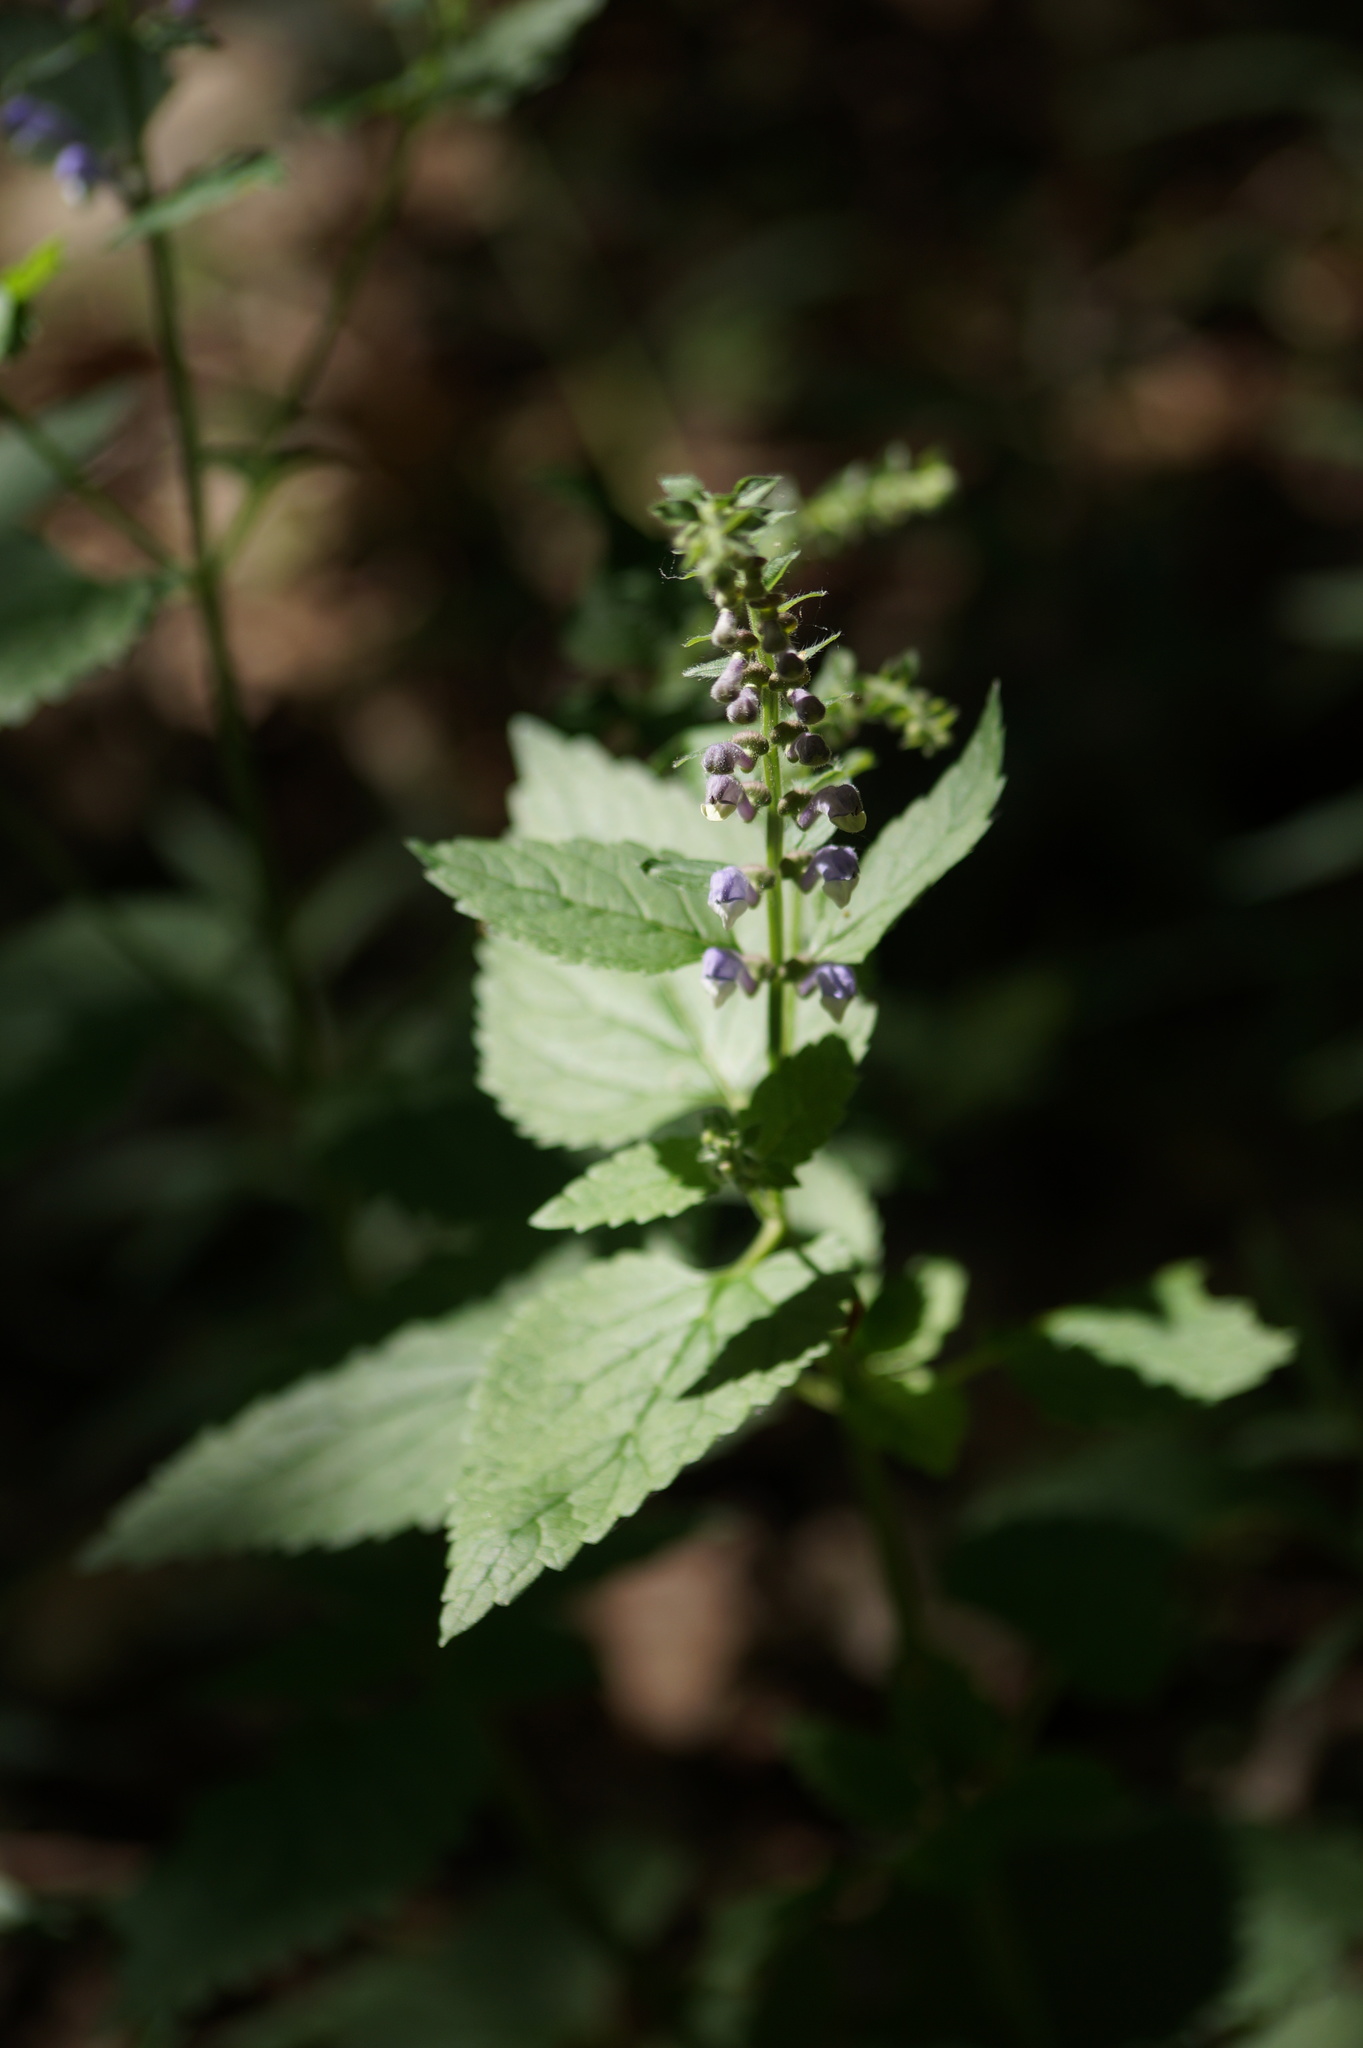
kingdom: Plantae
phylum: Tracheophyta
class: Magnoliopsida
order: Lamiales
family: Lamiaceae
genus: Scutellaria
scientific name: Scutellaria altissima
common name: Somerset skullcap
